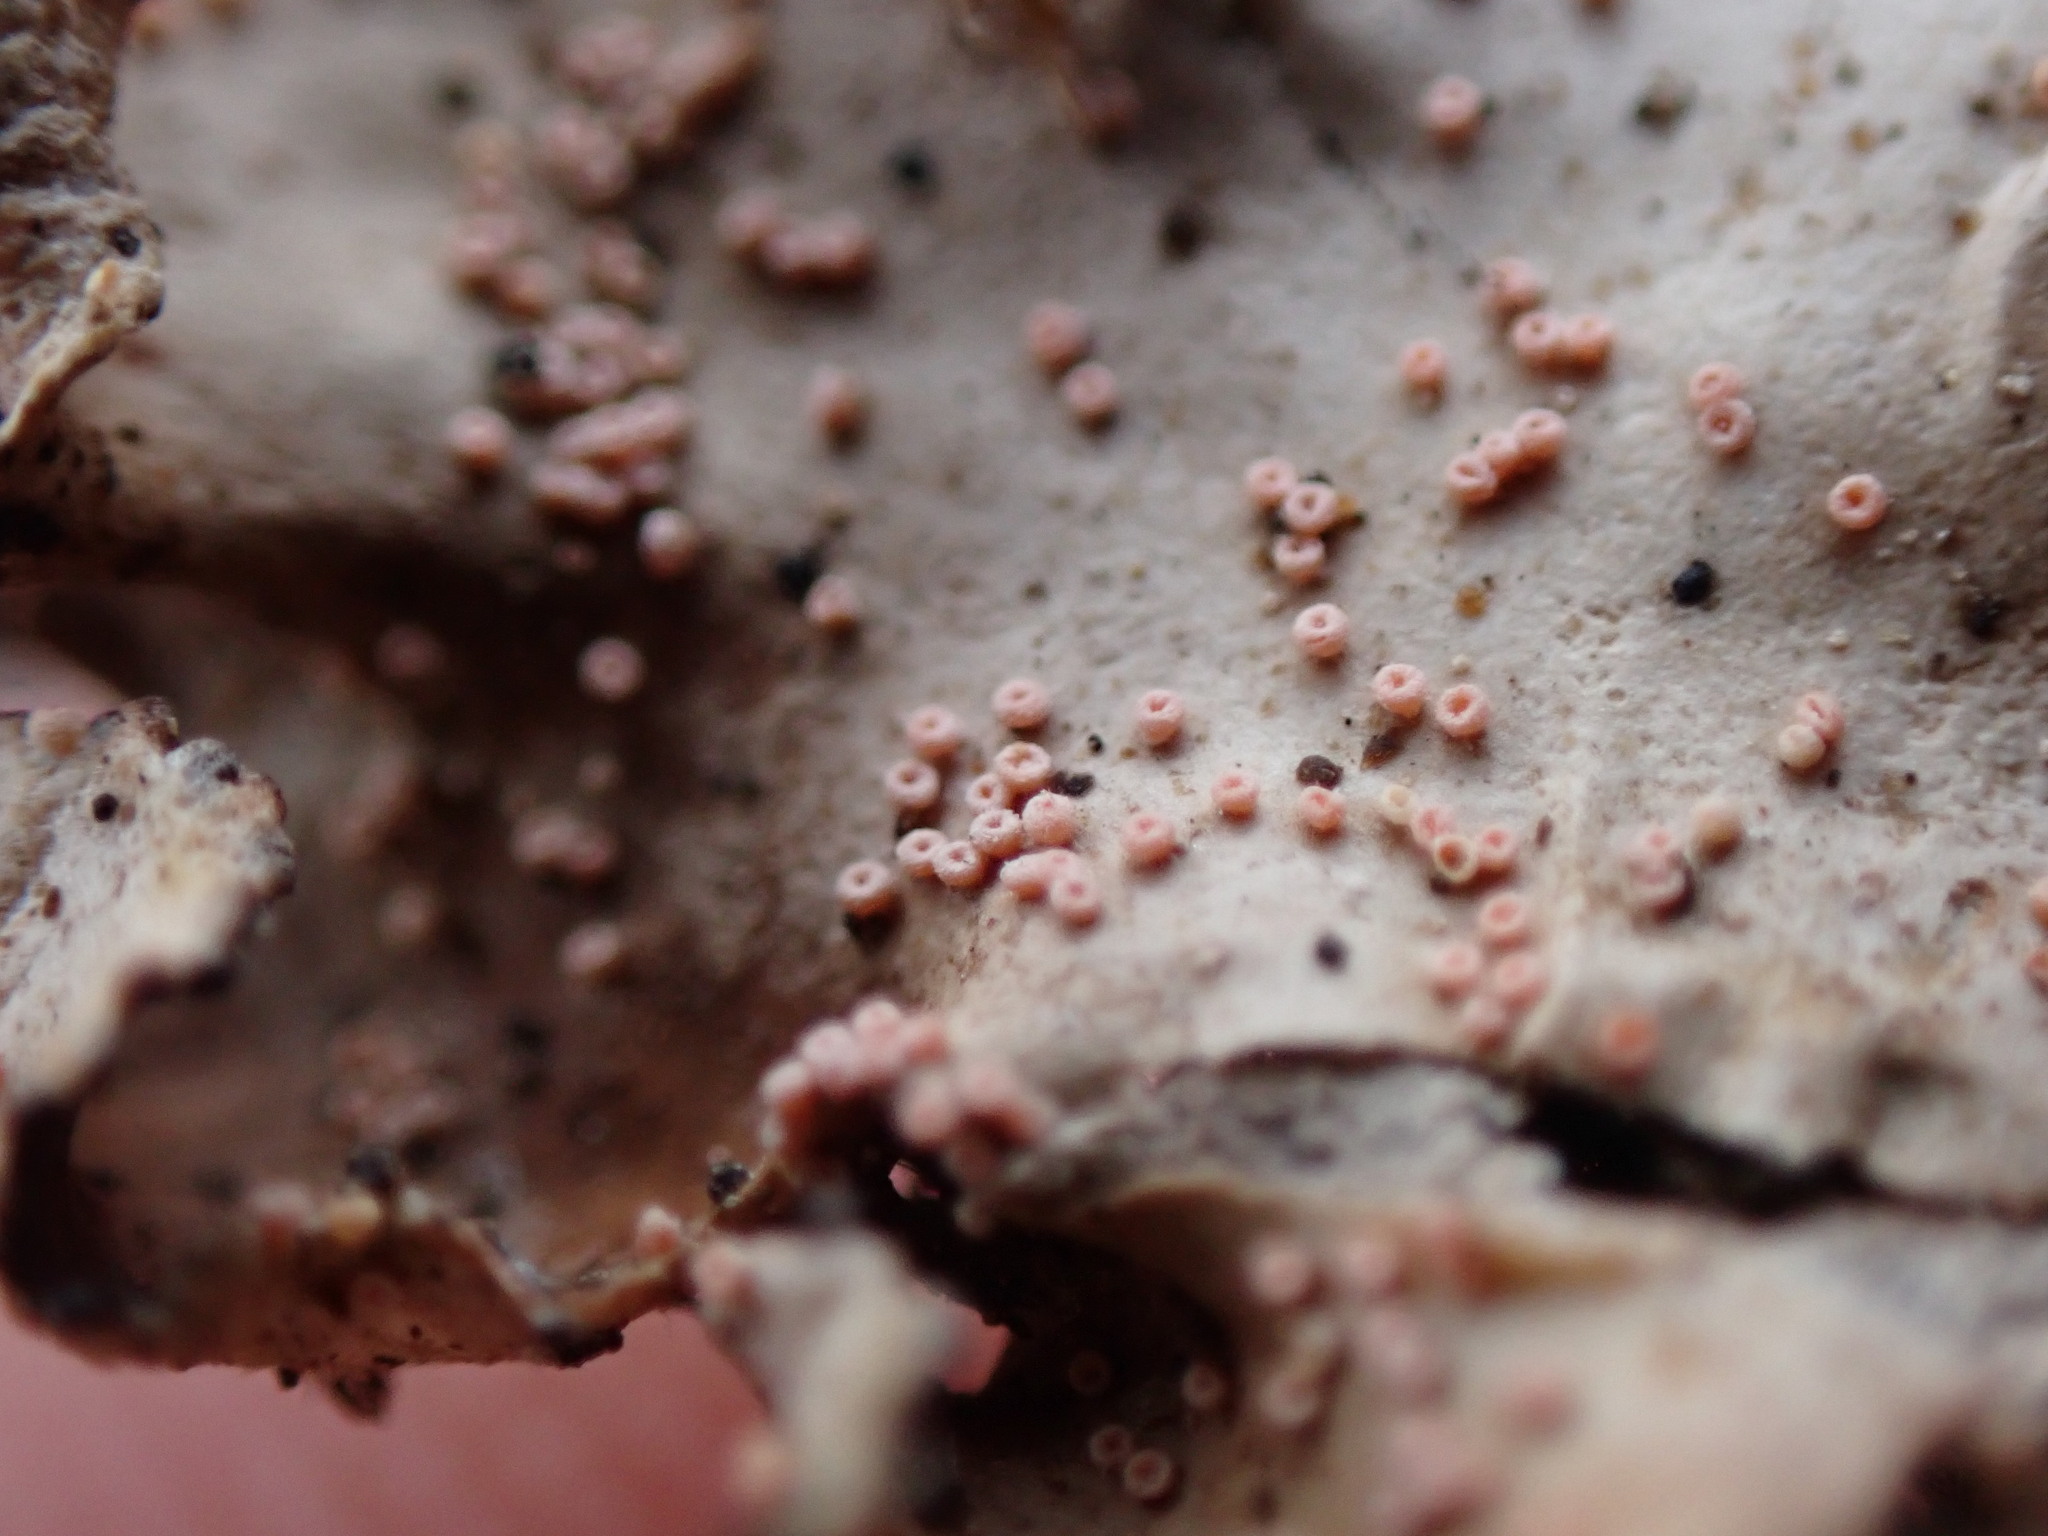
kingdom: Fungi
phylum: Ascomycota
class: Sordariomycetes
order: Hypocreales
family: Bionectriaceae
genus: Nectriopsis
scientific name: Nectriopsis lecanodes
